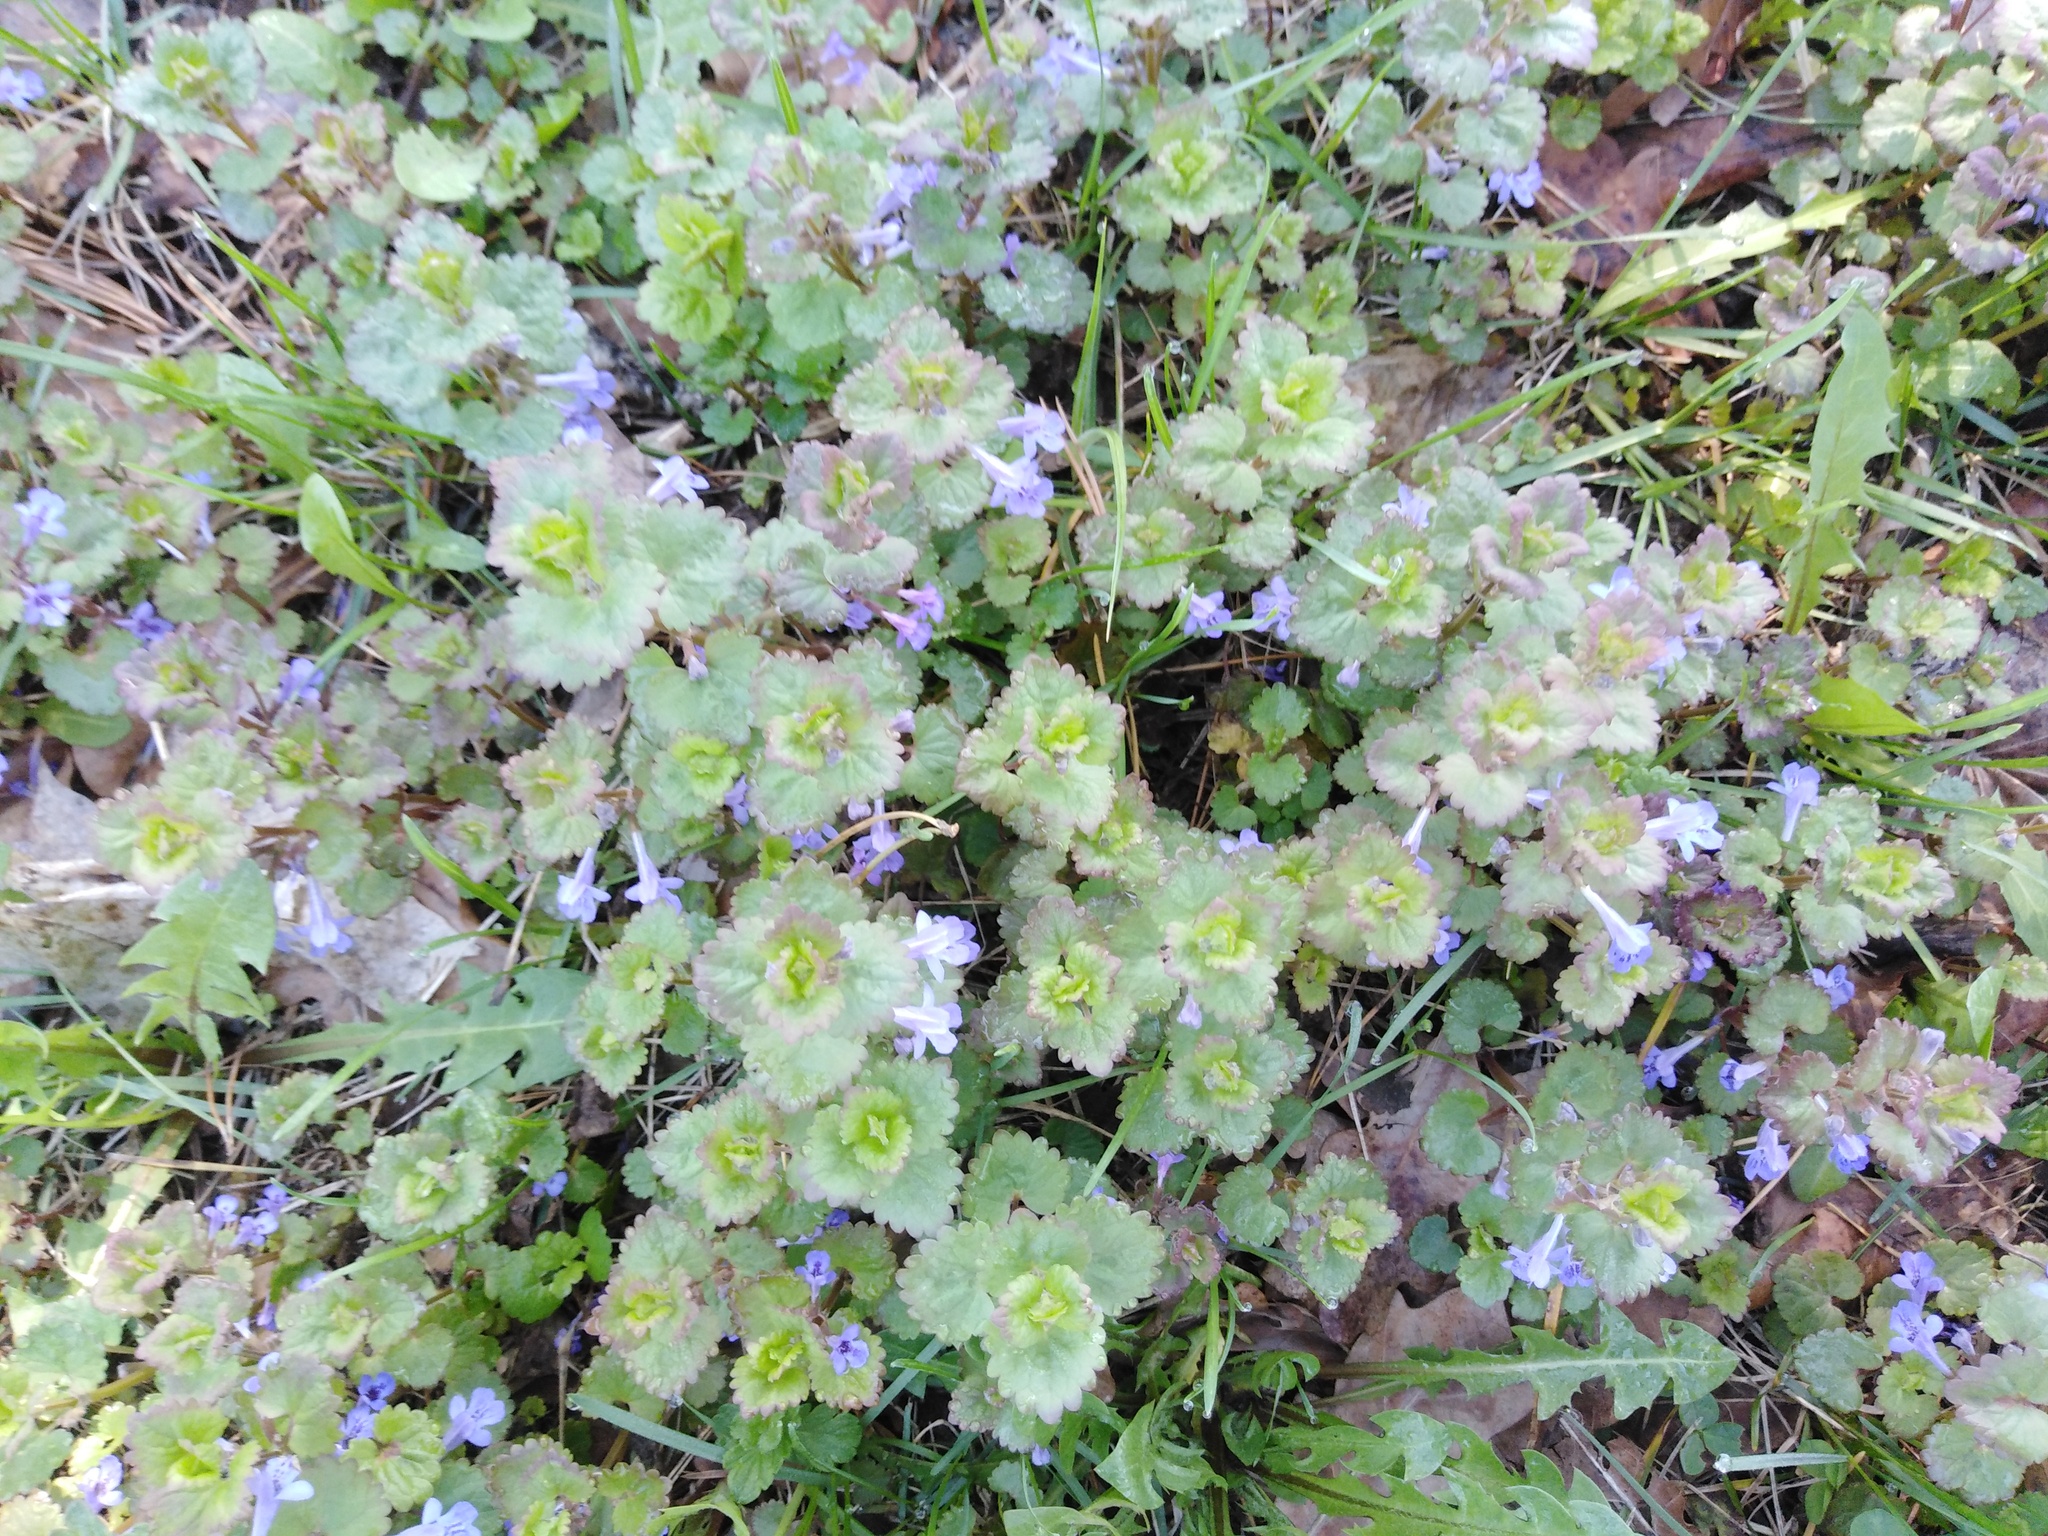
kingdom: Plantae
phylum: Tracheophyta
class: Magnoliopsida
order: Lamiales
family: Lamiaceae
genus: Glechoma
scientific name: Glechoma hederacea
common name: Ground ivy
